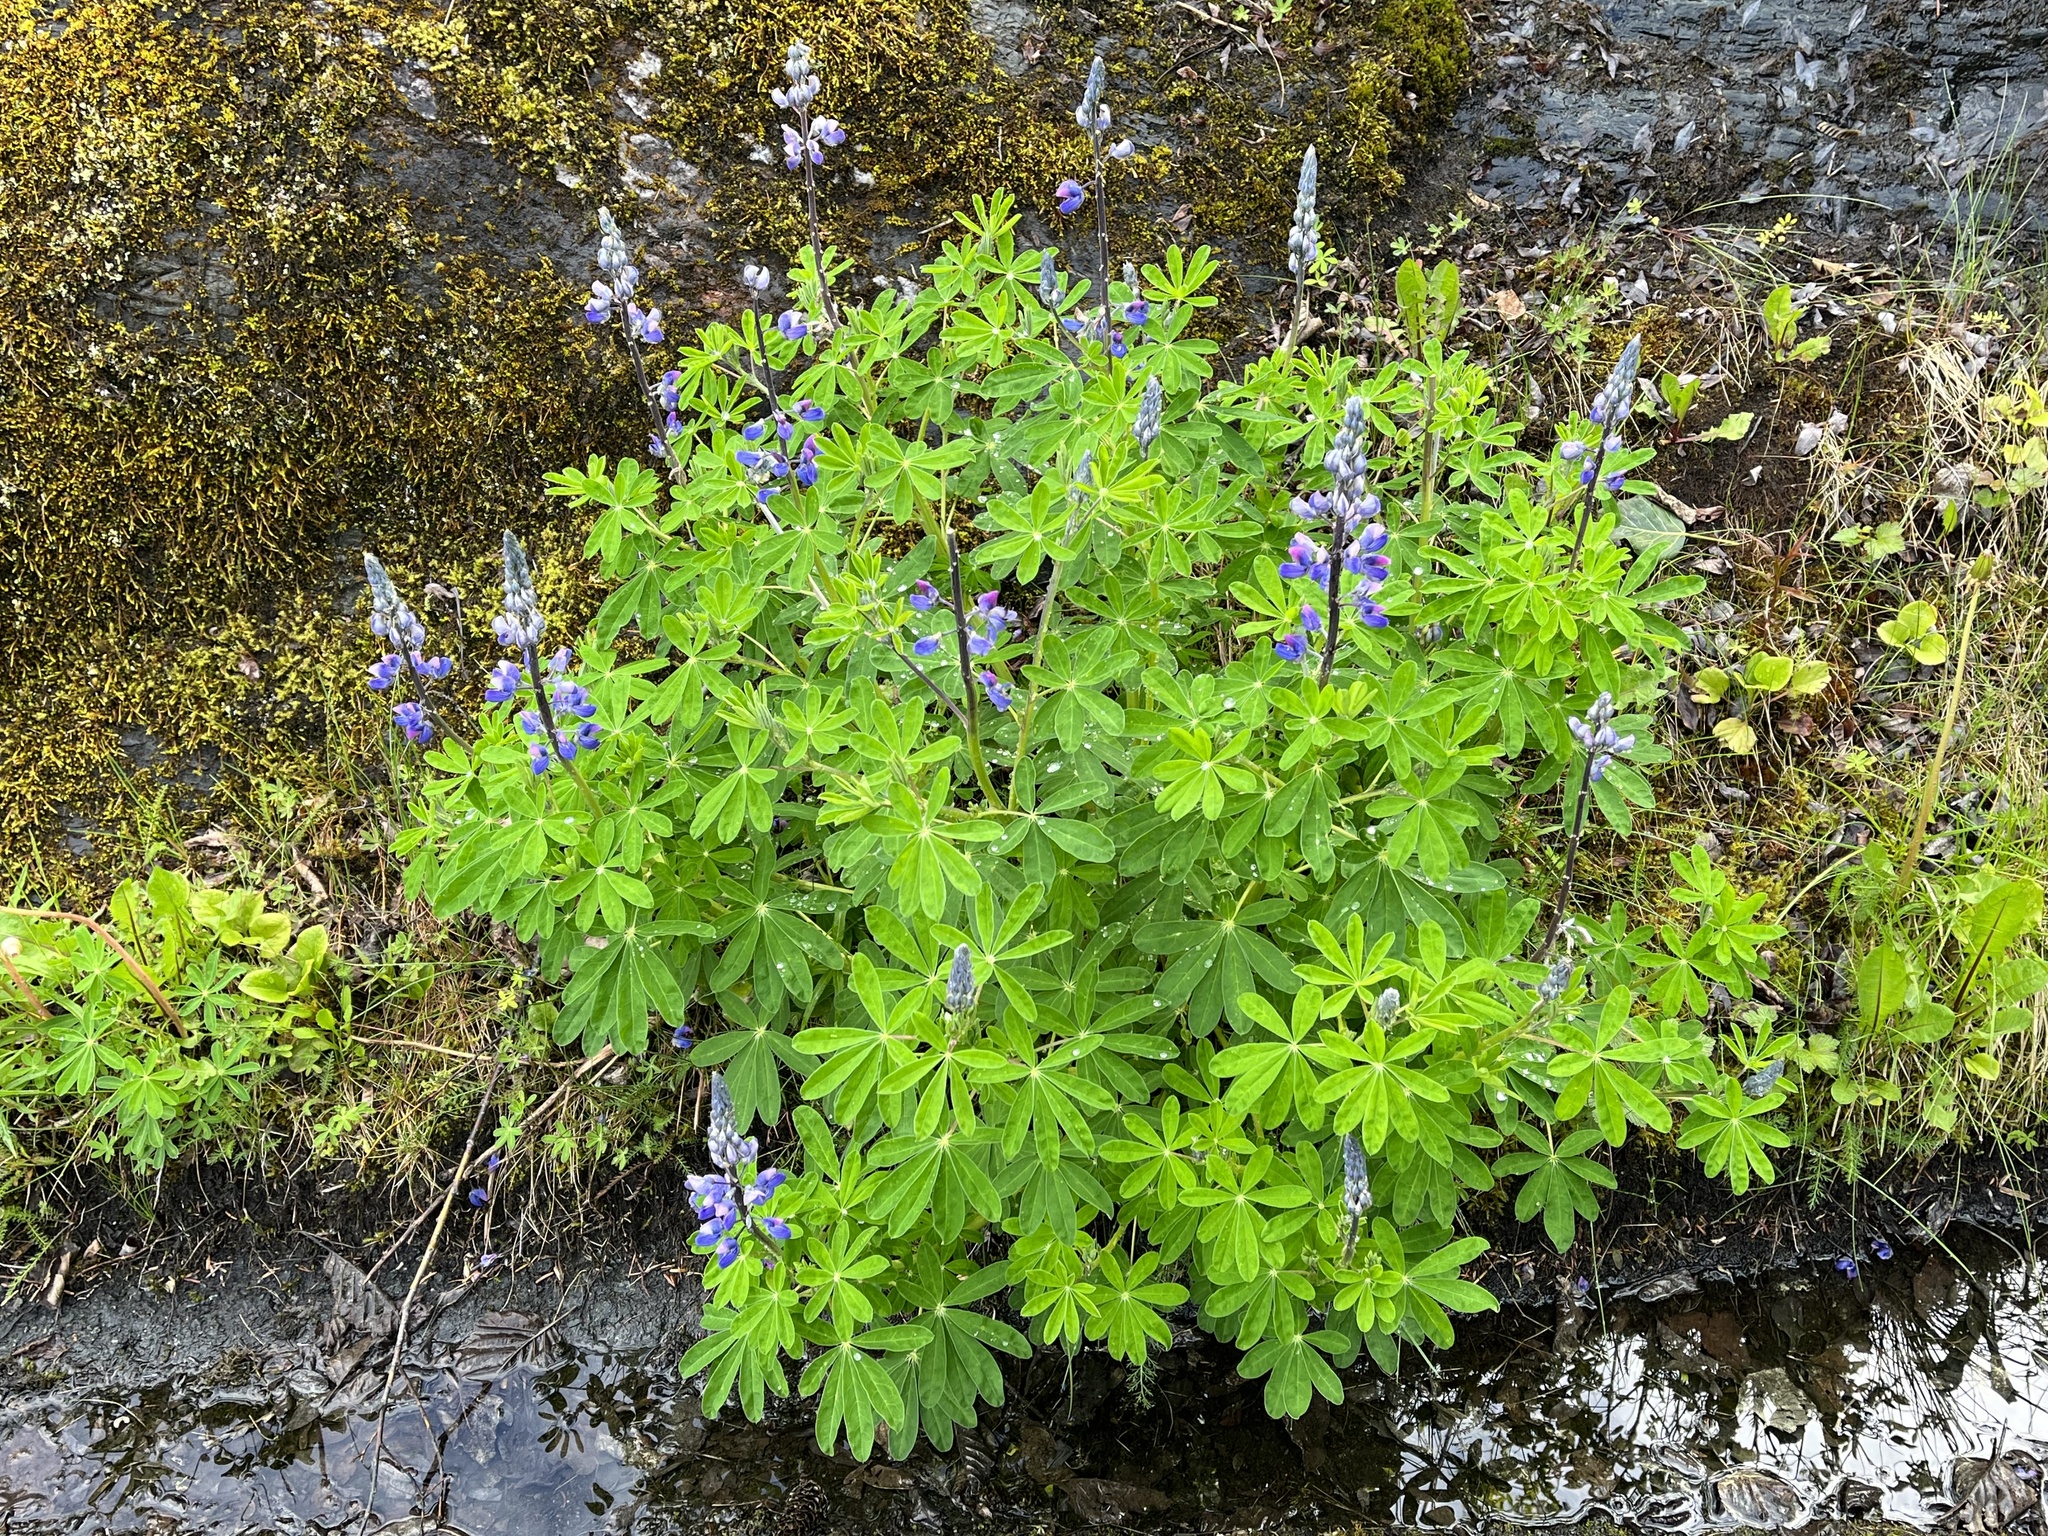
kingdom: Plantae
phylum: Tracheophyta
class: Magnoliopsida
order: Fabales
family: Fabaceae
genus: Lupinus
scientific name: Lupinus nootkatensis
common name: Nootka lupine
